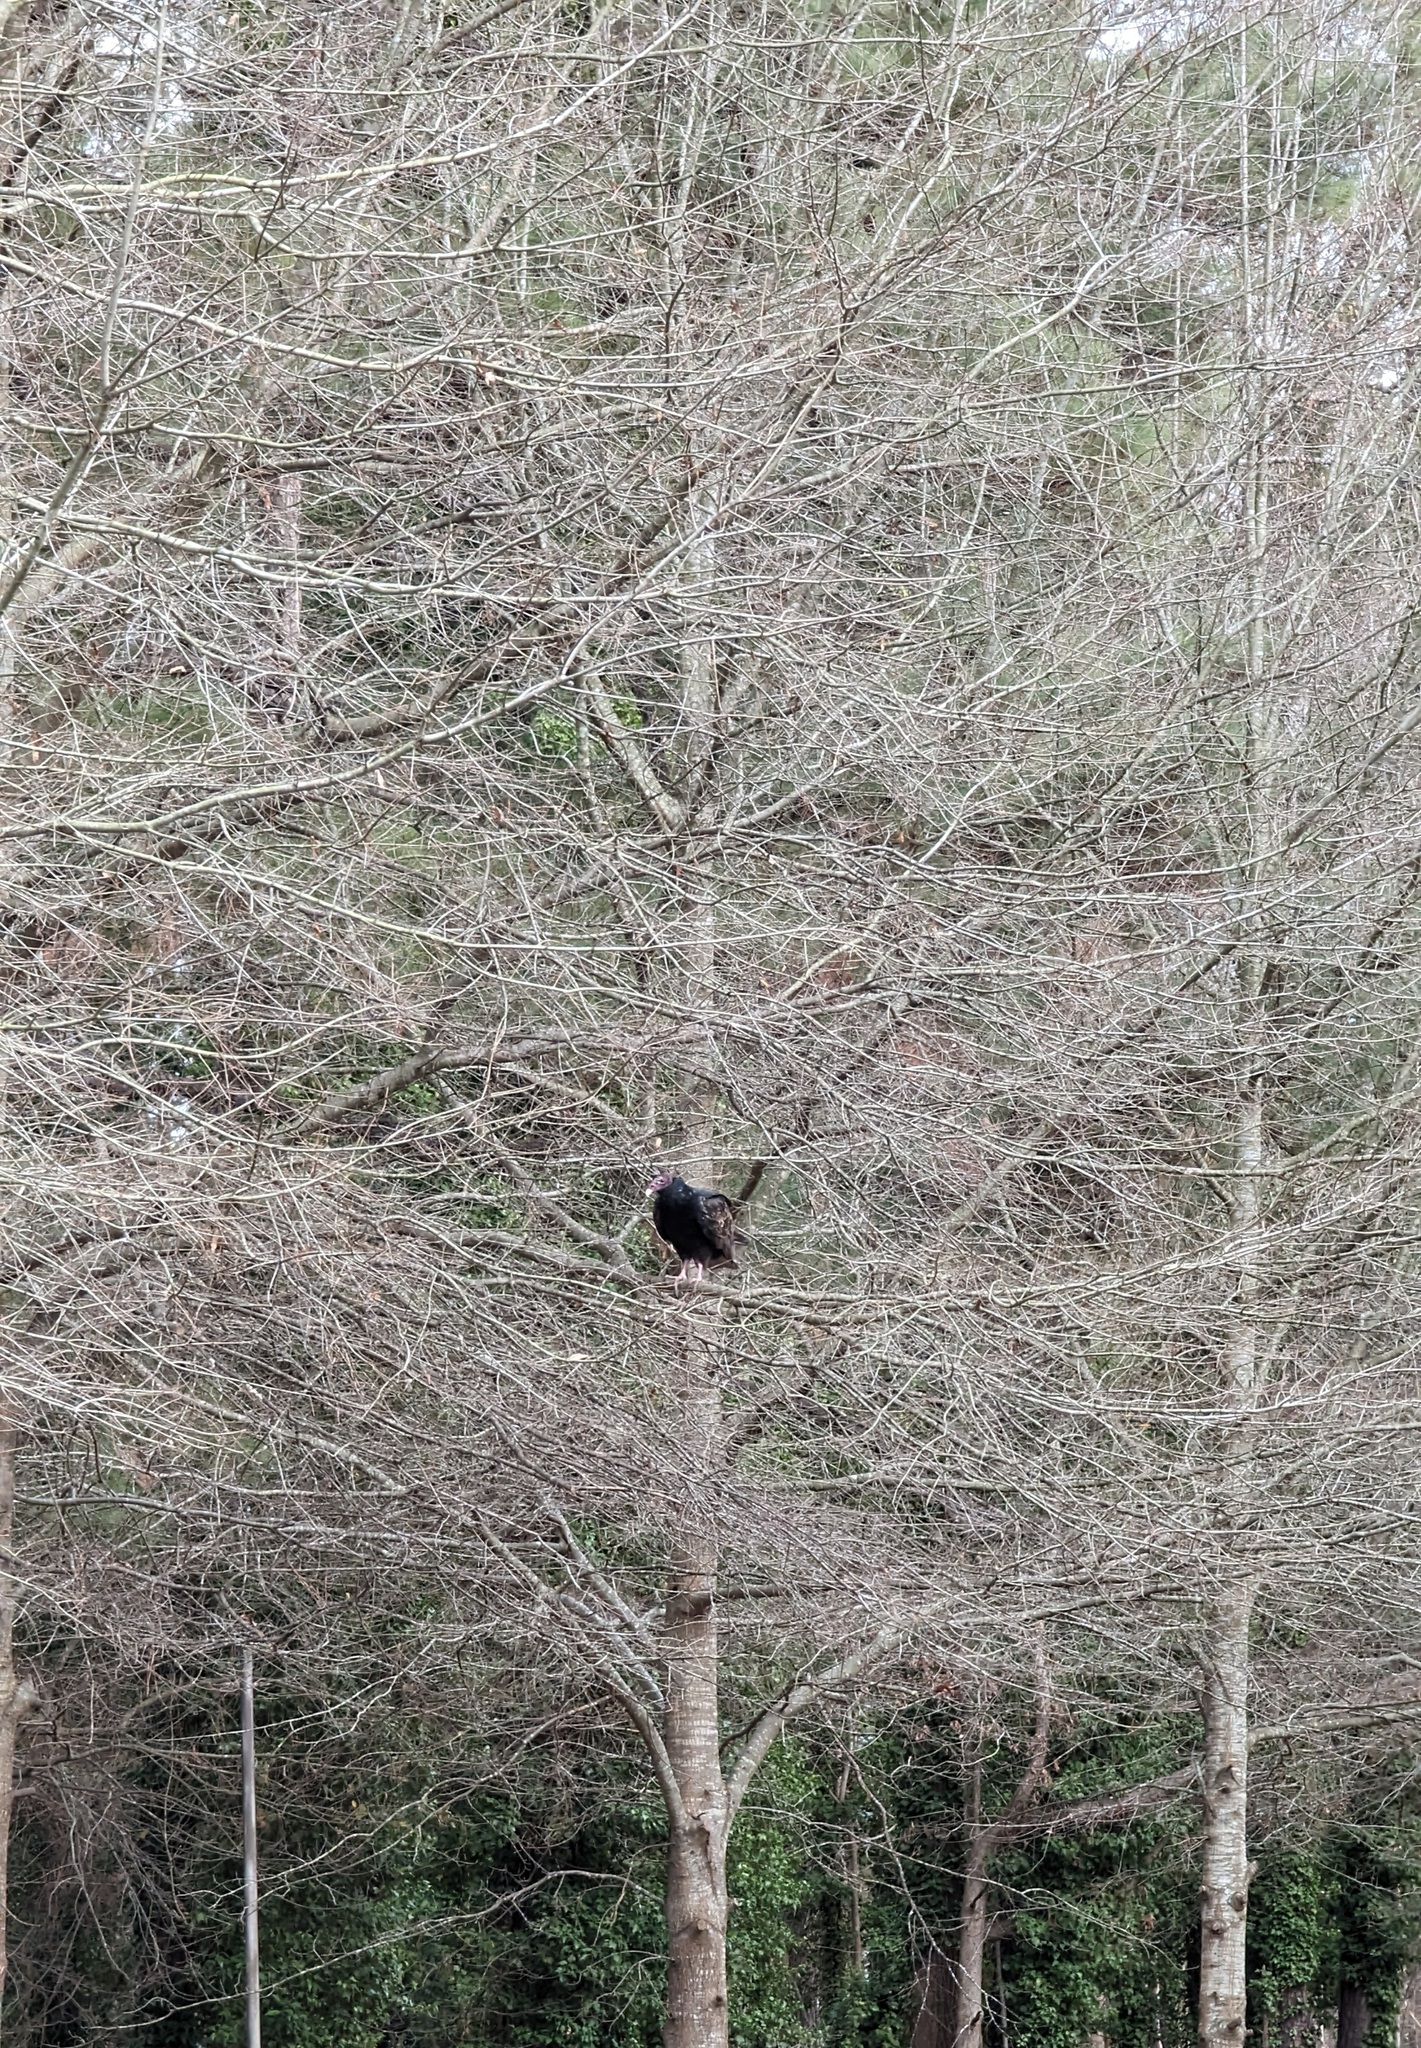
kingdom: Animalia
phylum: Chordata
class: Aves
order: Accipitriformes
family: Cathartidae
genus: Cathartes
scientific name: Cathartes aura
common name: Turkey vulture
